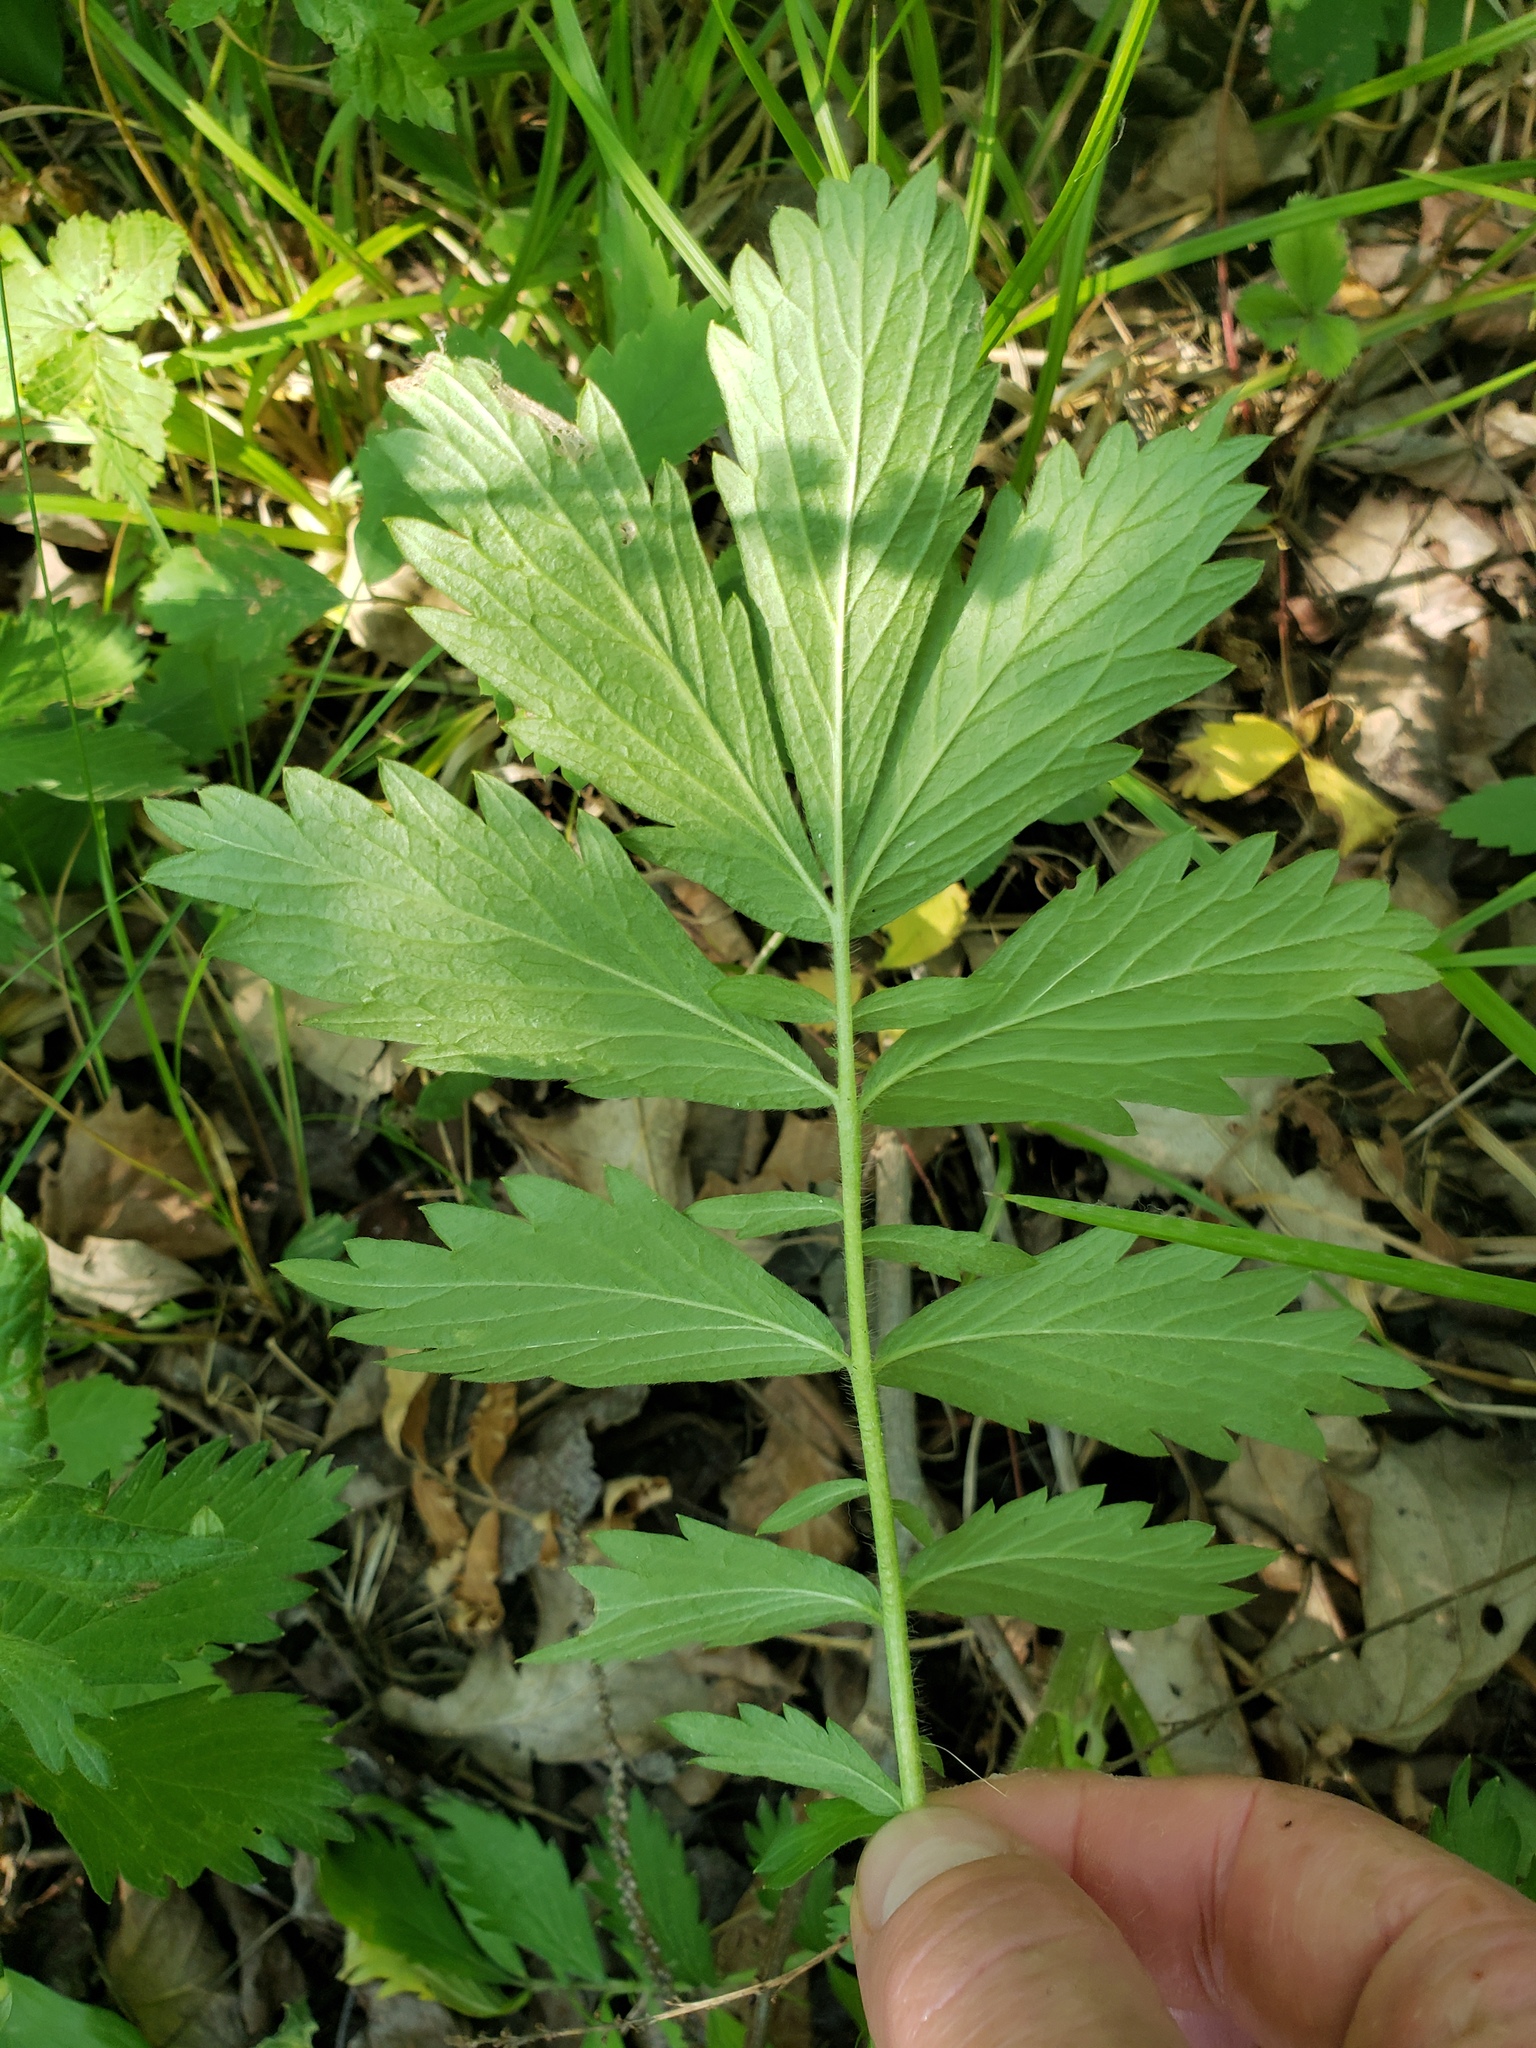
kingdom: Plantae
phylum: Tracheophyta
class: Magnoliopsida
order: Rosales
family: Rosaceae
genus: Agrimonia
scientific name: Agrimonia striata
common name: Britton's agrimony
